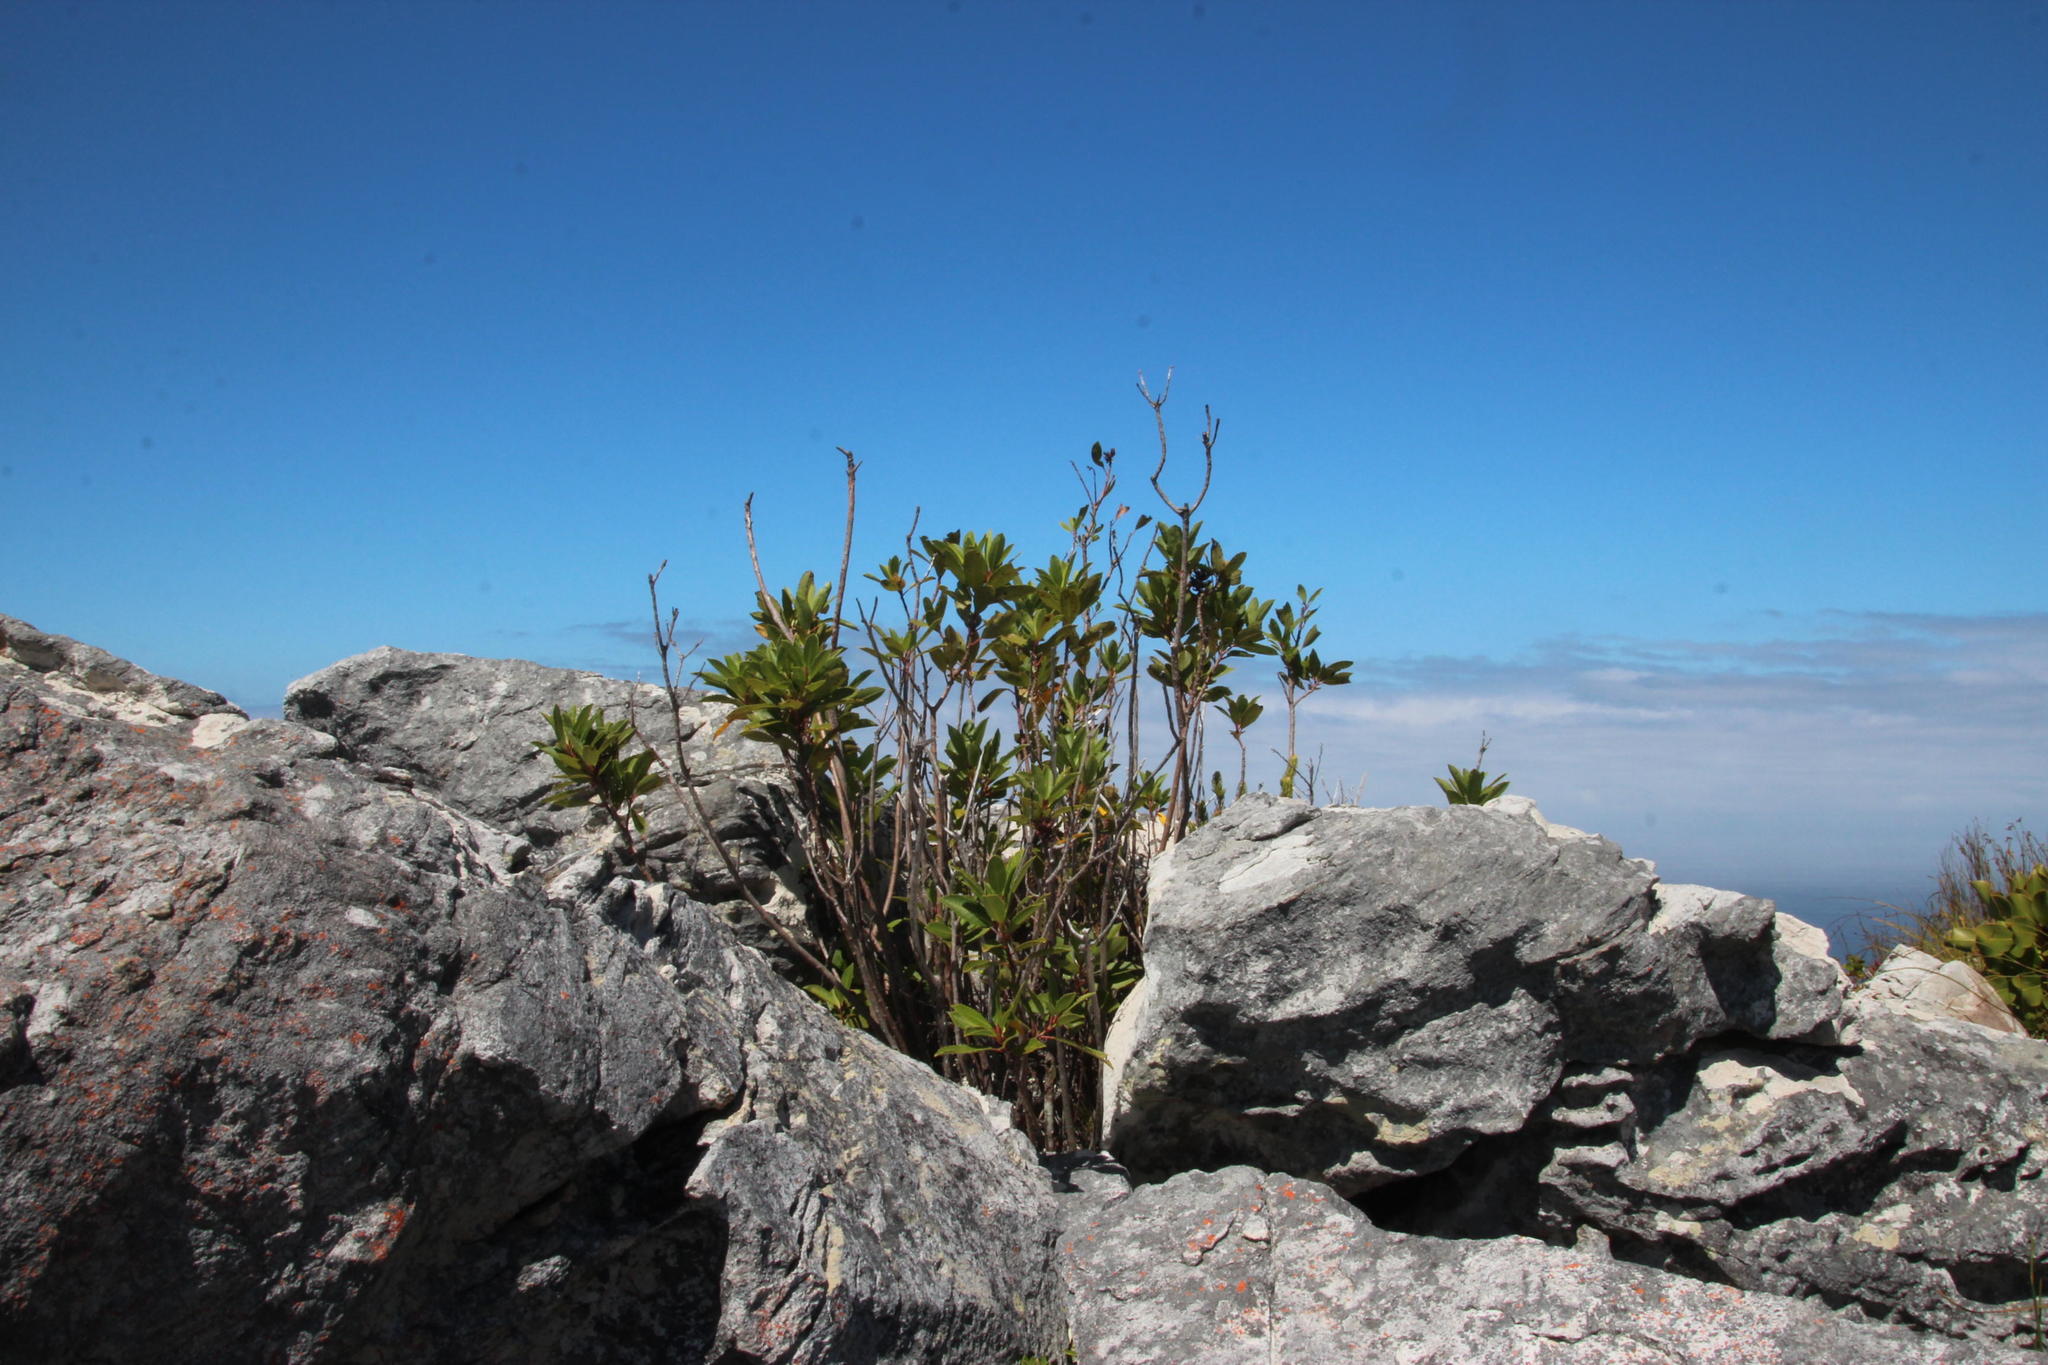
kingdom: Plantae
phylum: Tracheophyta
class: Magnoliopsida
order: Celastrales
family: Celastraceae
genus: Gymnosporia
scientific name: Gymnosporia laurina
